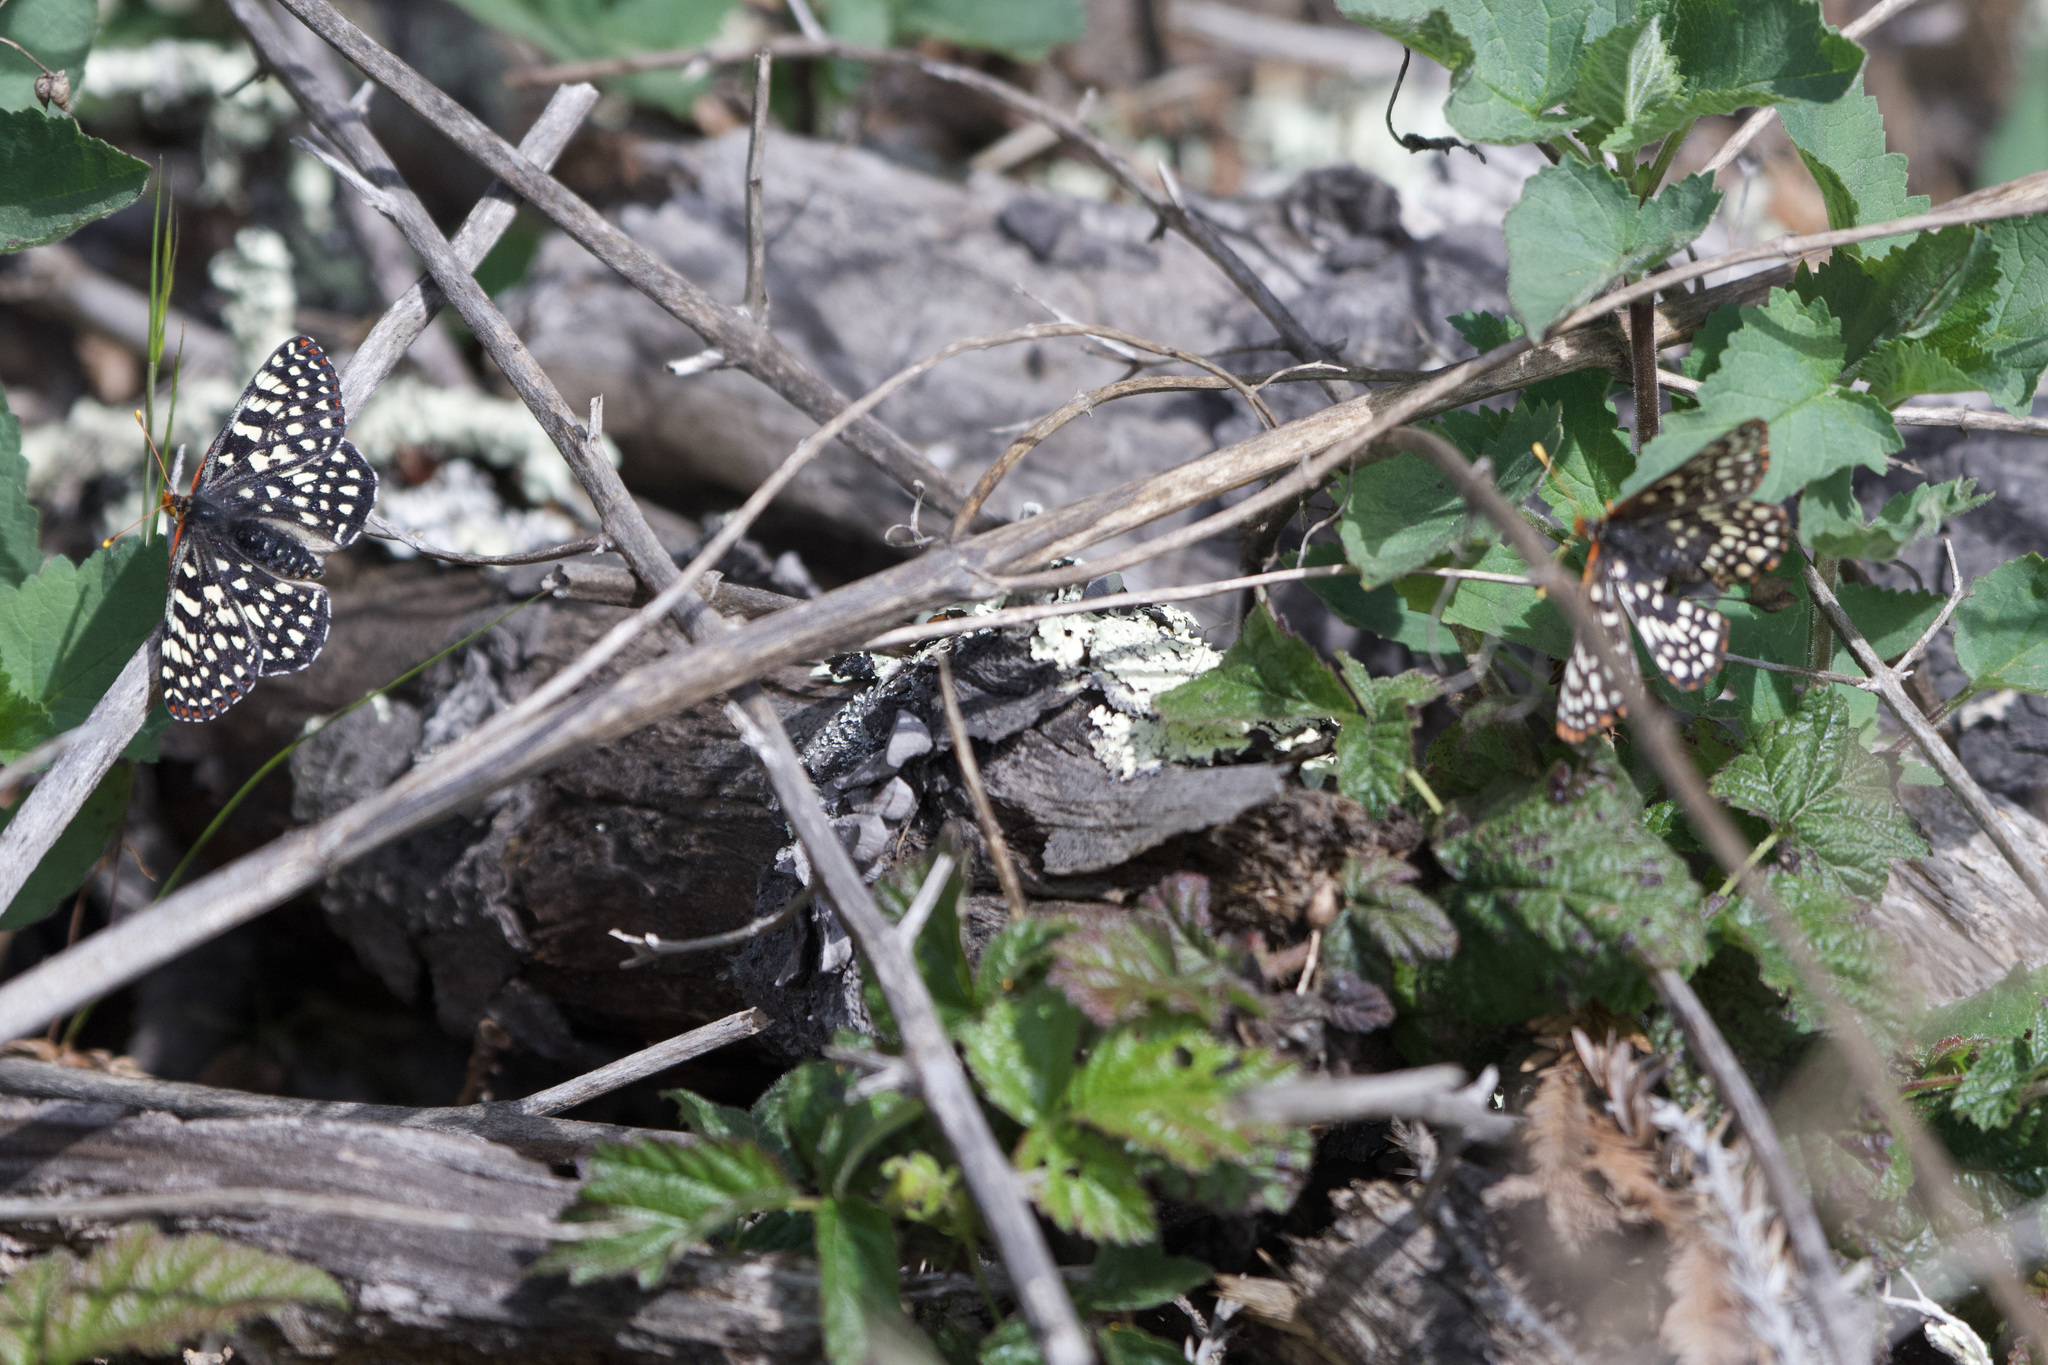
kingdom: Animalia
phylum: Arthropoda
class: Insecta
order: Lepidoptera
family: Nymphalidae
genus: Occidryas
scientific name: Occidryas chalcedona
